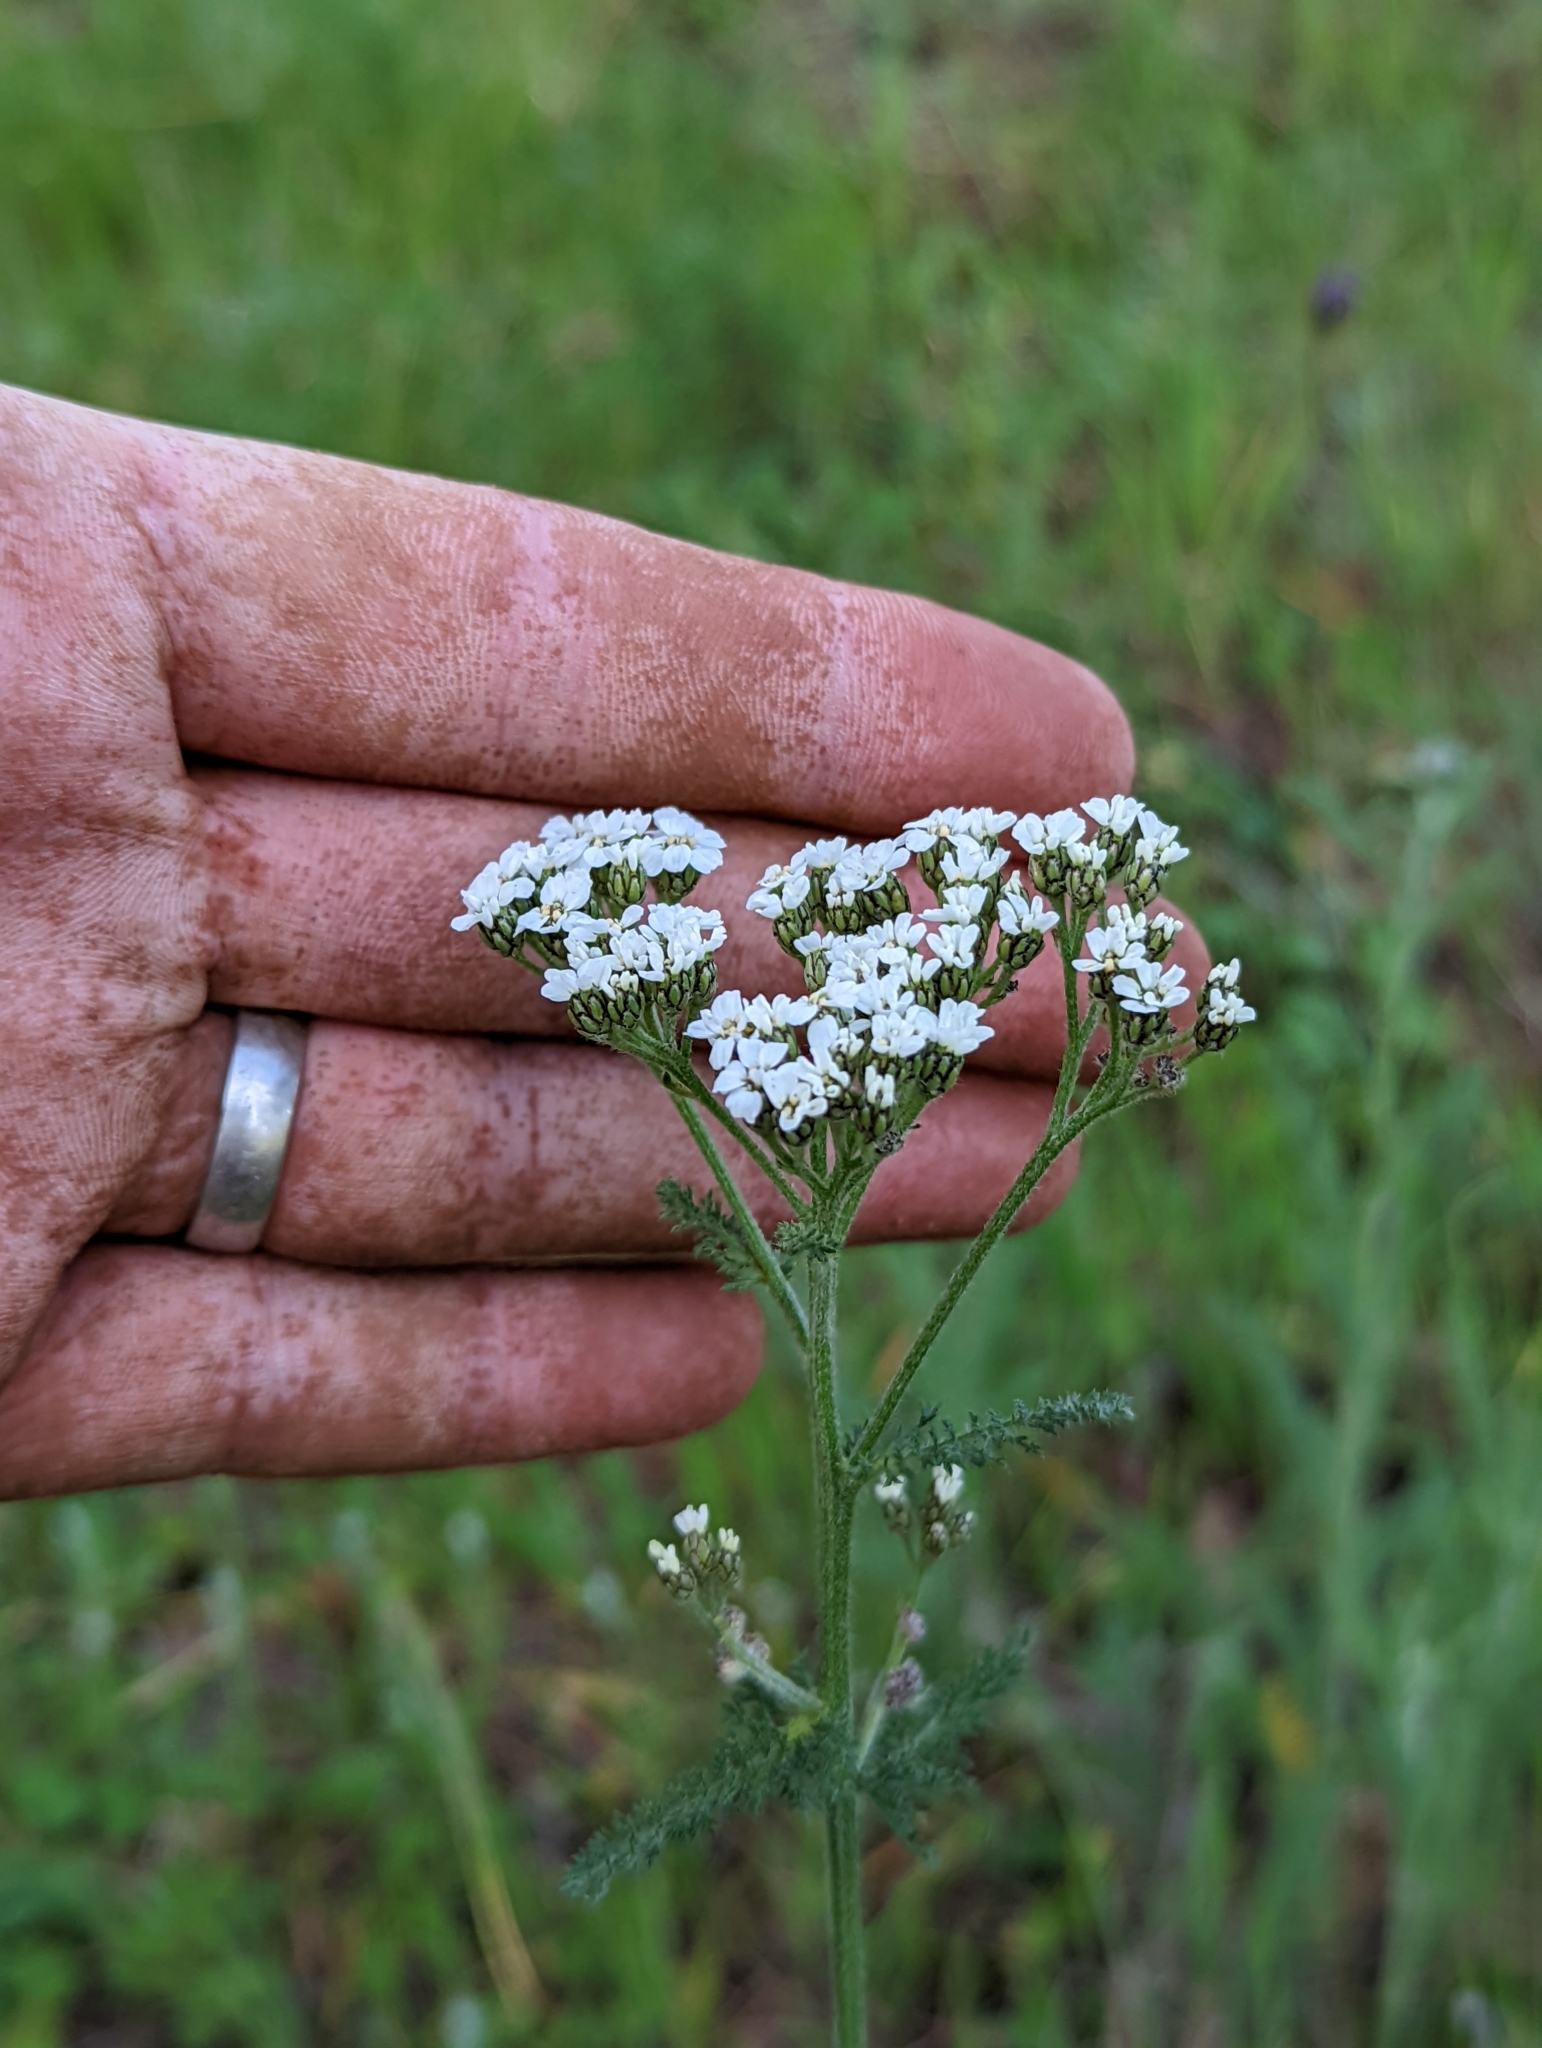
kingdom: Plantae
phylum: Tracheophyta
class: Magnoliopsida
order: Asterales
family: Asteraceae
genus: Achillea
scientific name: Achillea millefolium
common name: Yarrow
